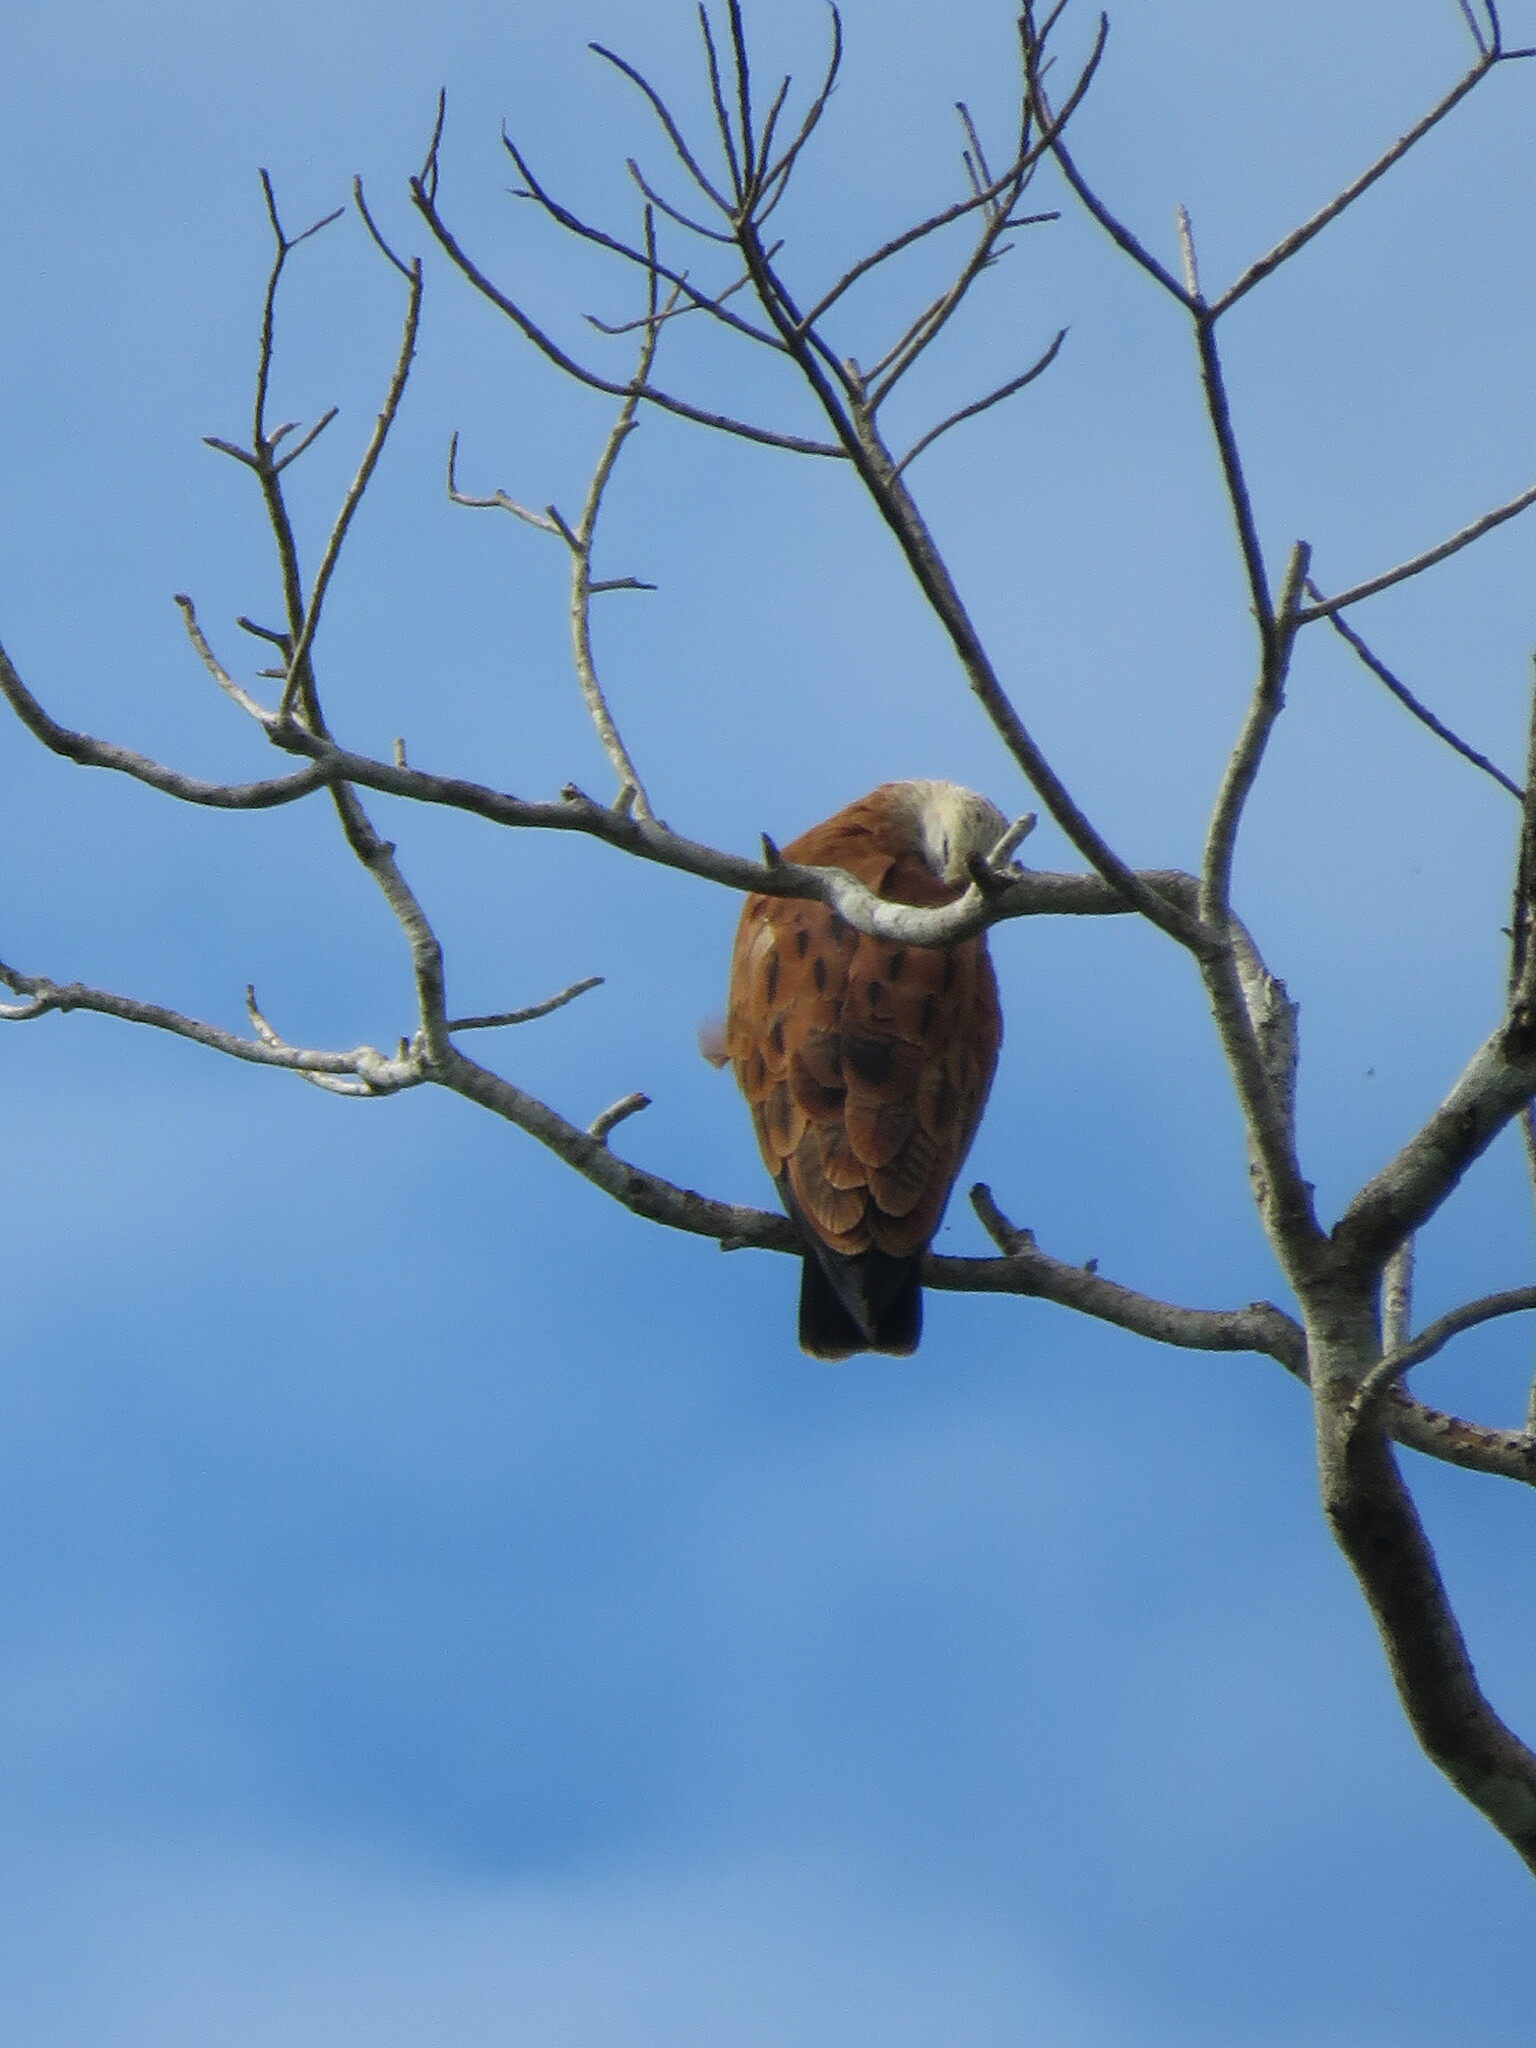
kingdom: Animalia
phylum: Chordata
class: Aves
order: Accipitriformes
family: Accipitridae
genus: Busarellus
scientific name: Busarellus nigricollis
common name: Black-collared hawk
